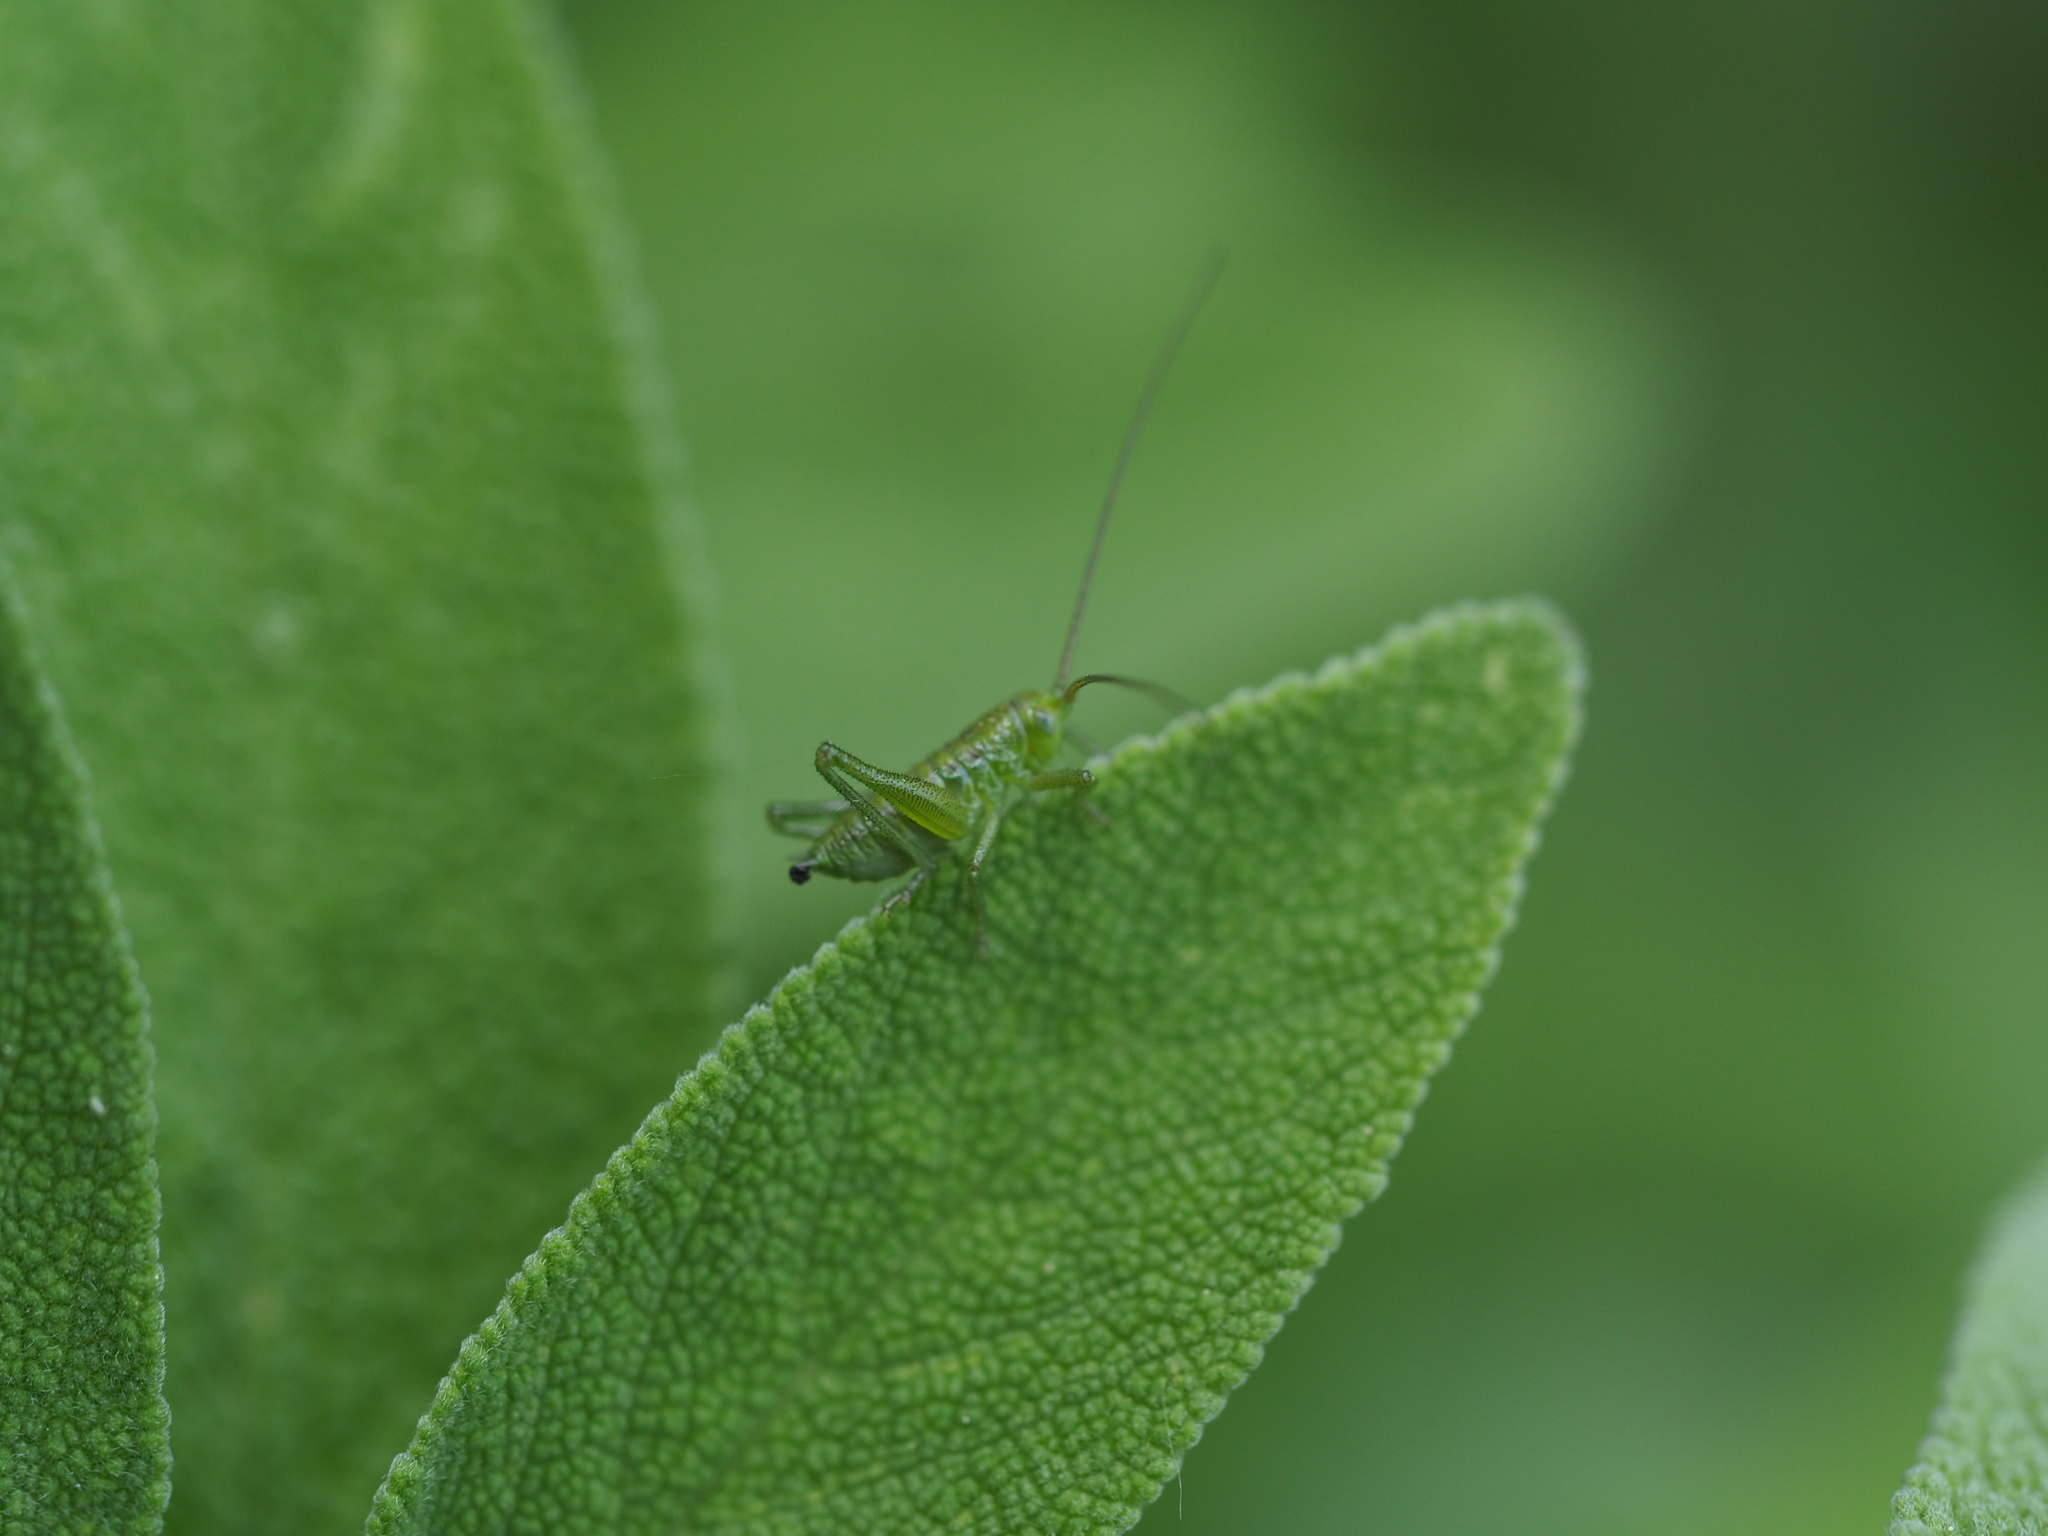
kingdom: Animalia
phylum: Arthropoda
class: Insecta
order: Orthoptera
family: Tettigoniidae
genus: Tettigonia
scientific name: Tettigonia viridissima
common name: Great green bush-cricket
